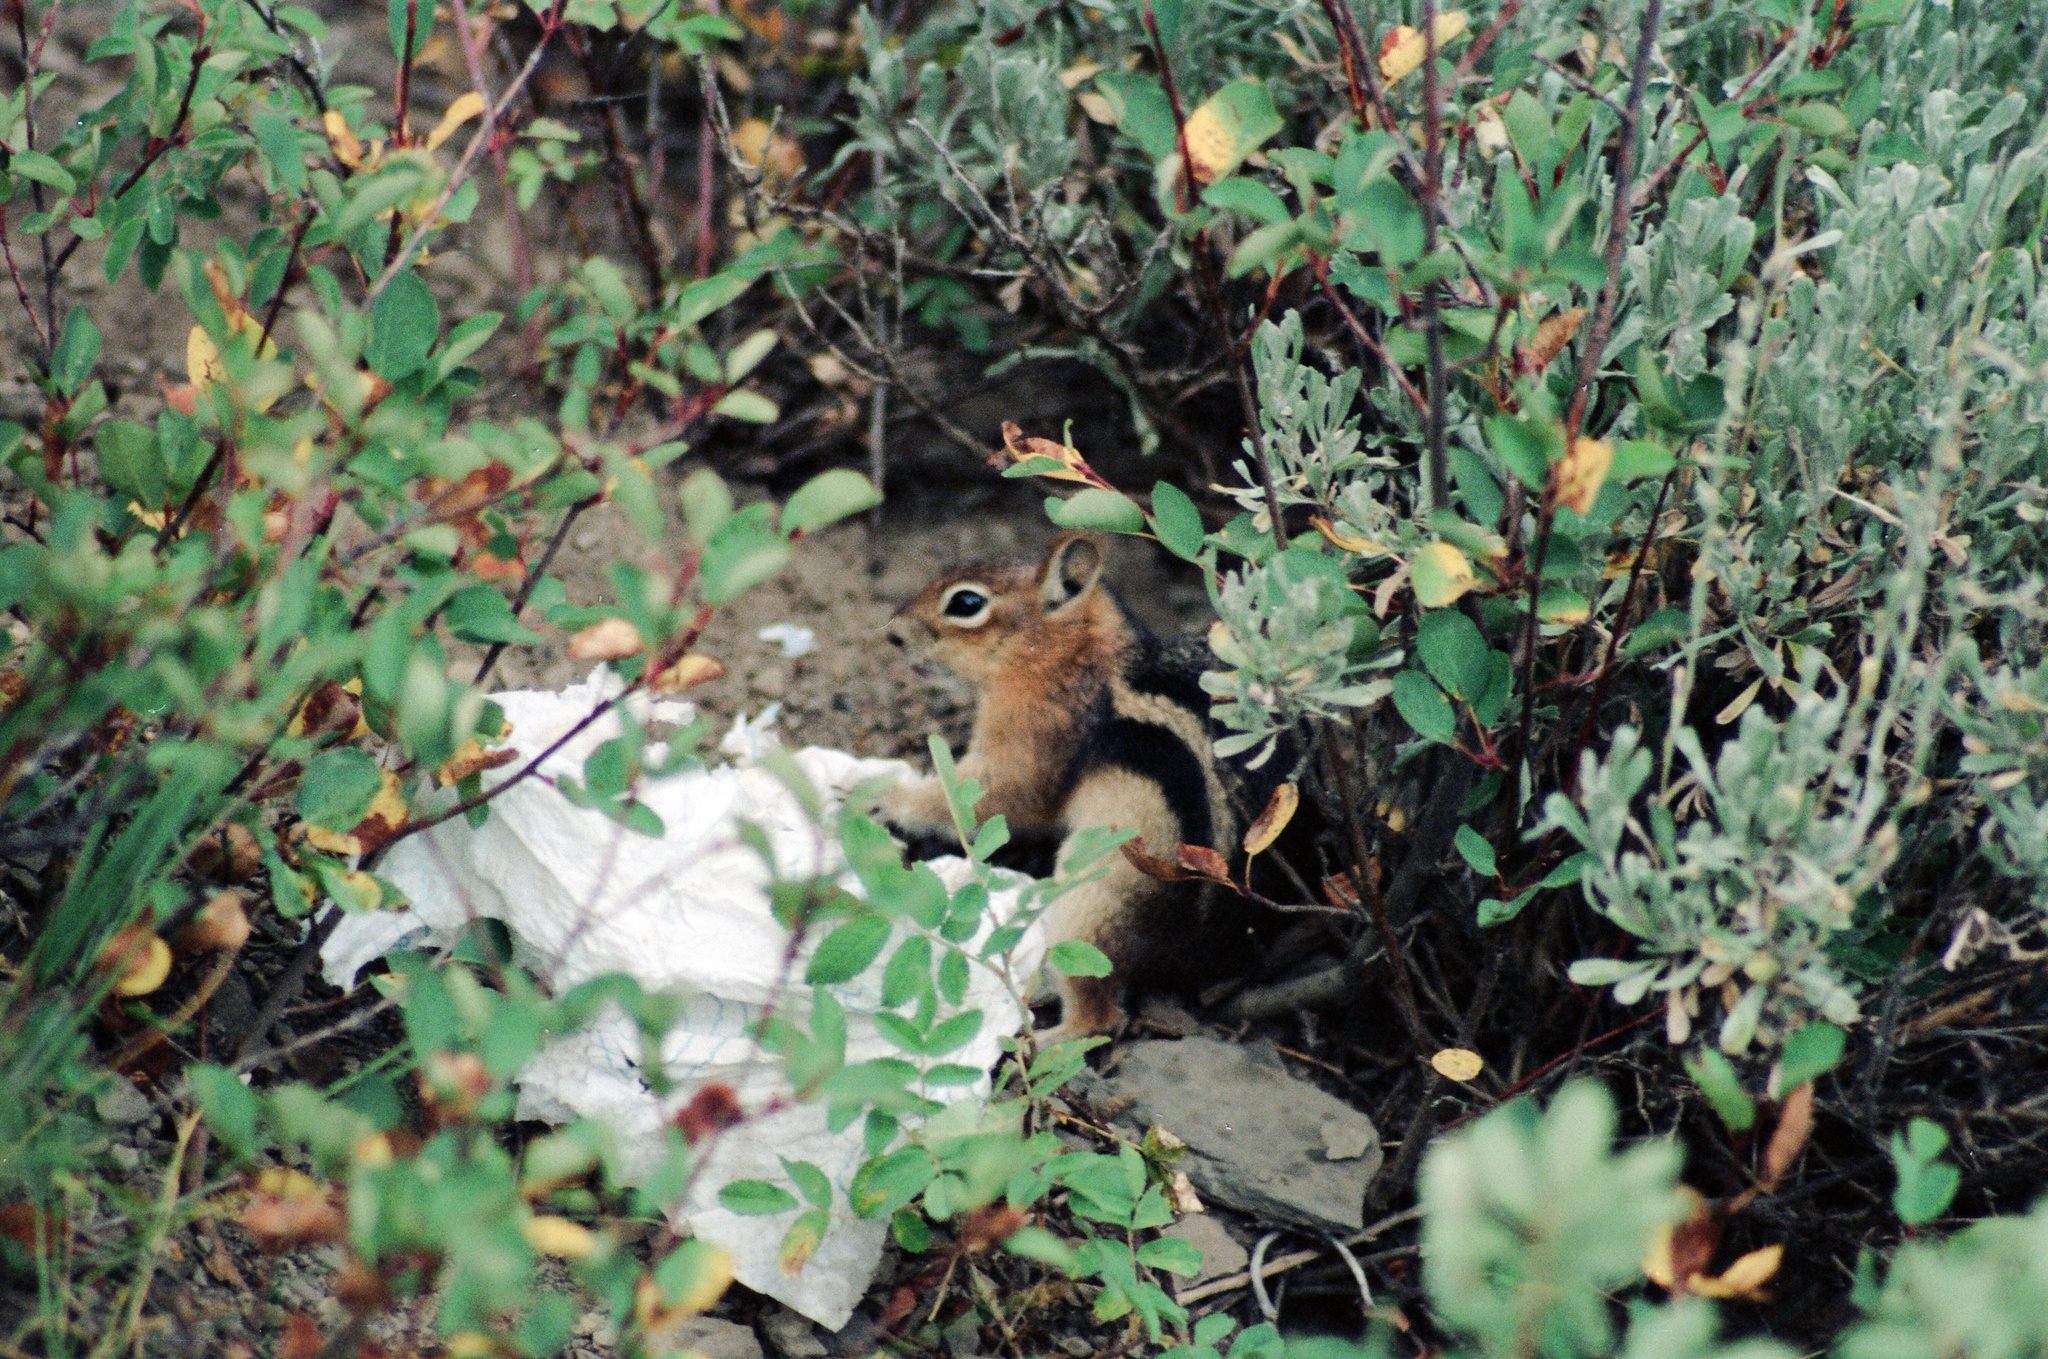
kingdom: Animalia
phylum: Chordata
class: Mammalia
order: Rodentia
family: Sciuridae
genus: Callospermophilus
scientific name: Callospermophilus lateralis
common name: Golden-mantled ground squirrel
